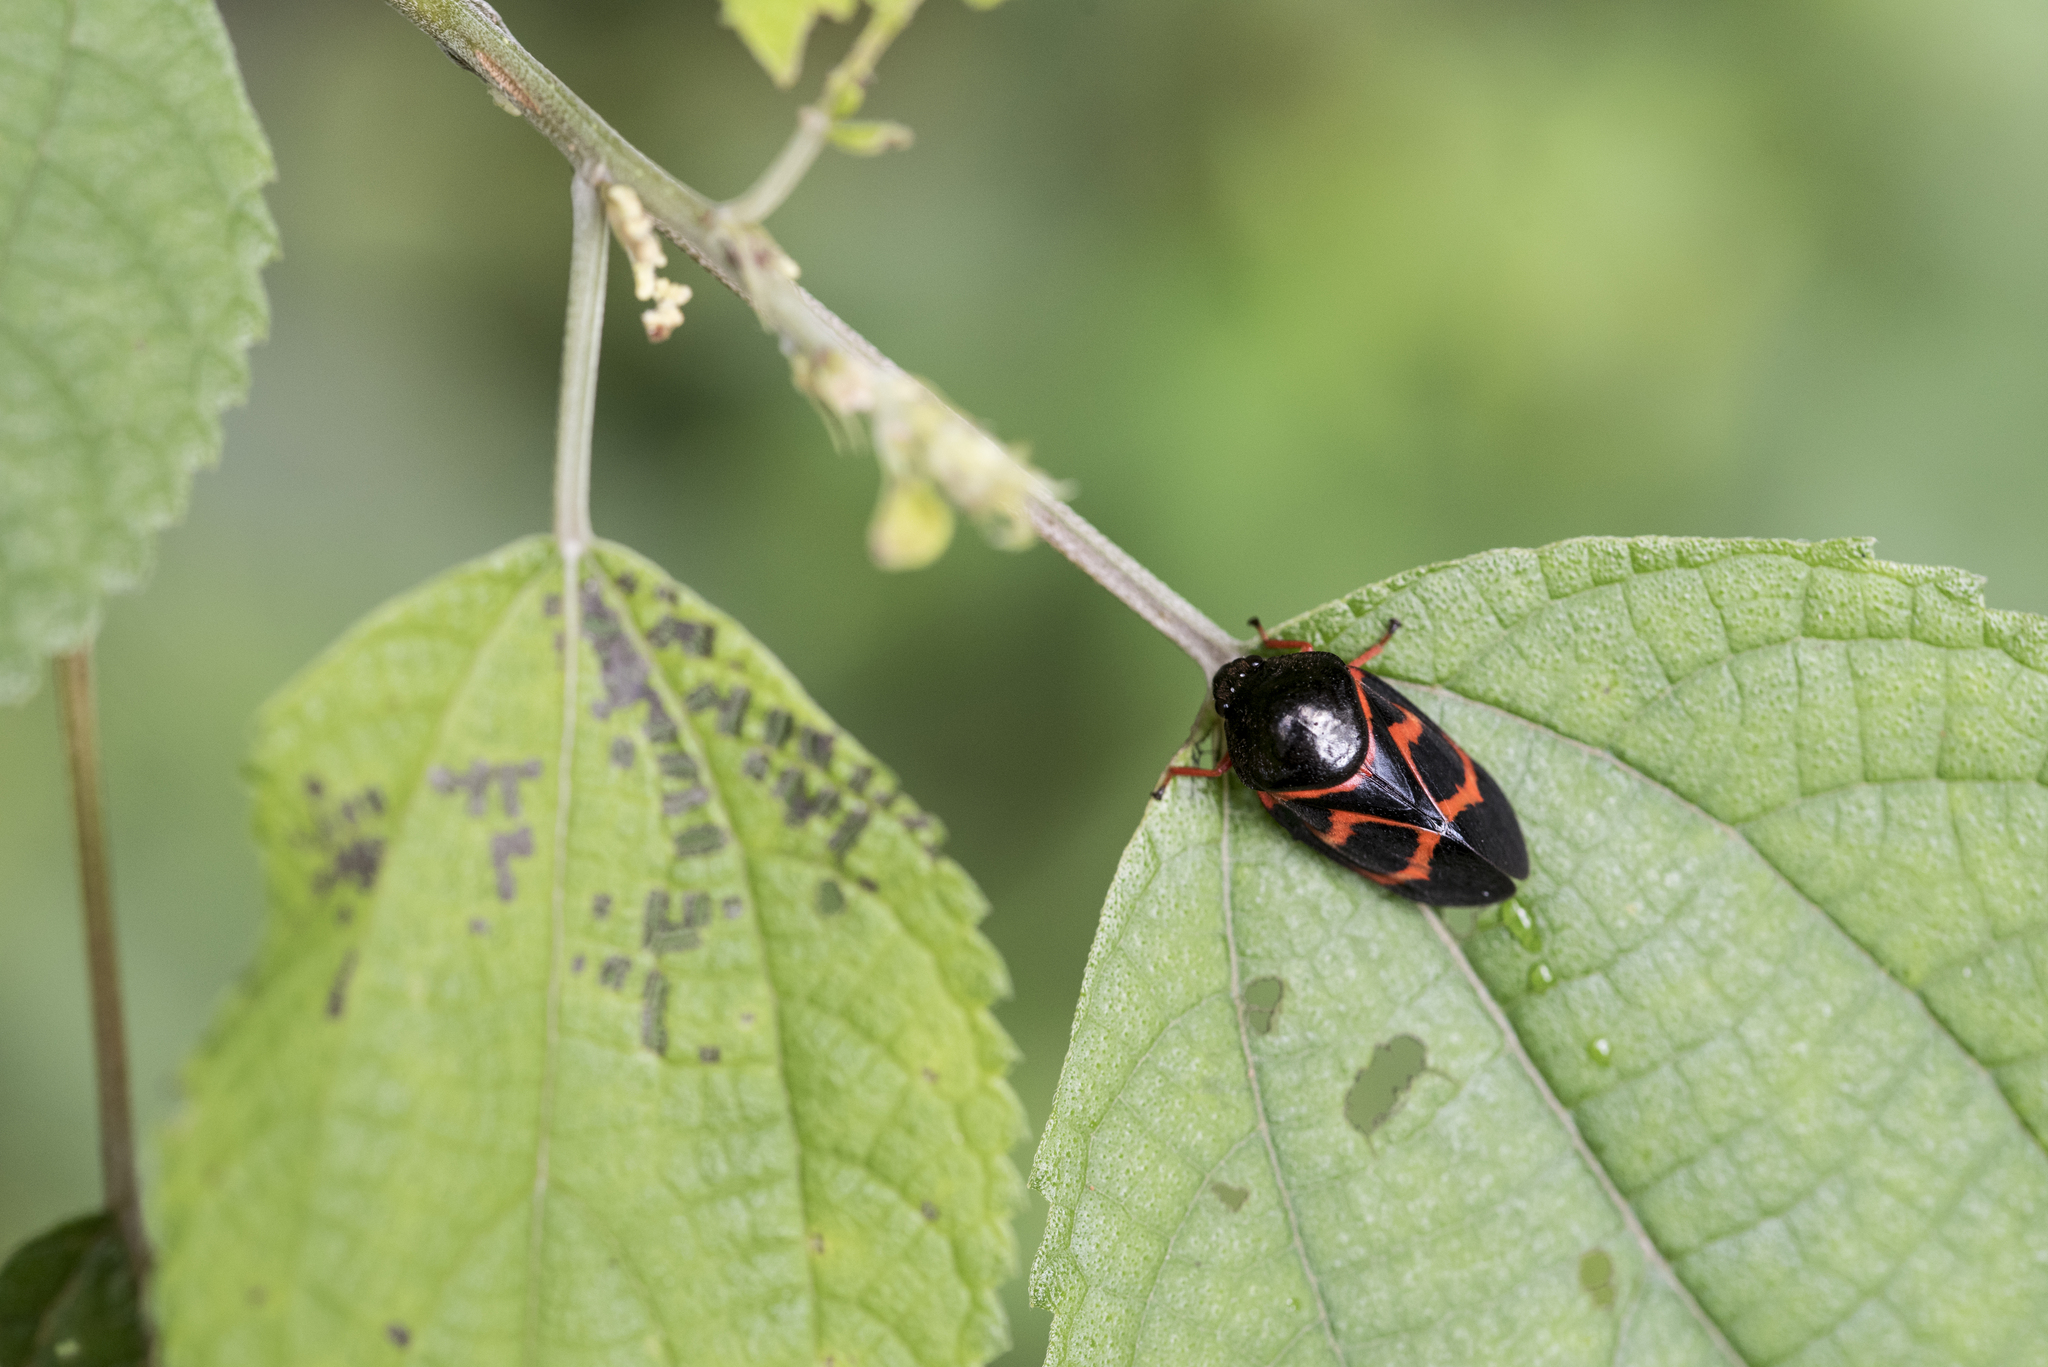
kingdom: Animalia
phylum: Arthropoda
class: Insecta
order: Hemiptera
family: Cercopidae
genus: Okiscarta
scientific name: Okiscarta uchidae
